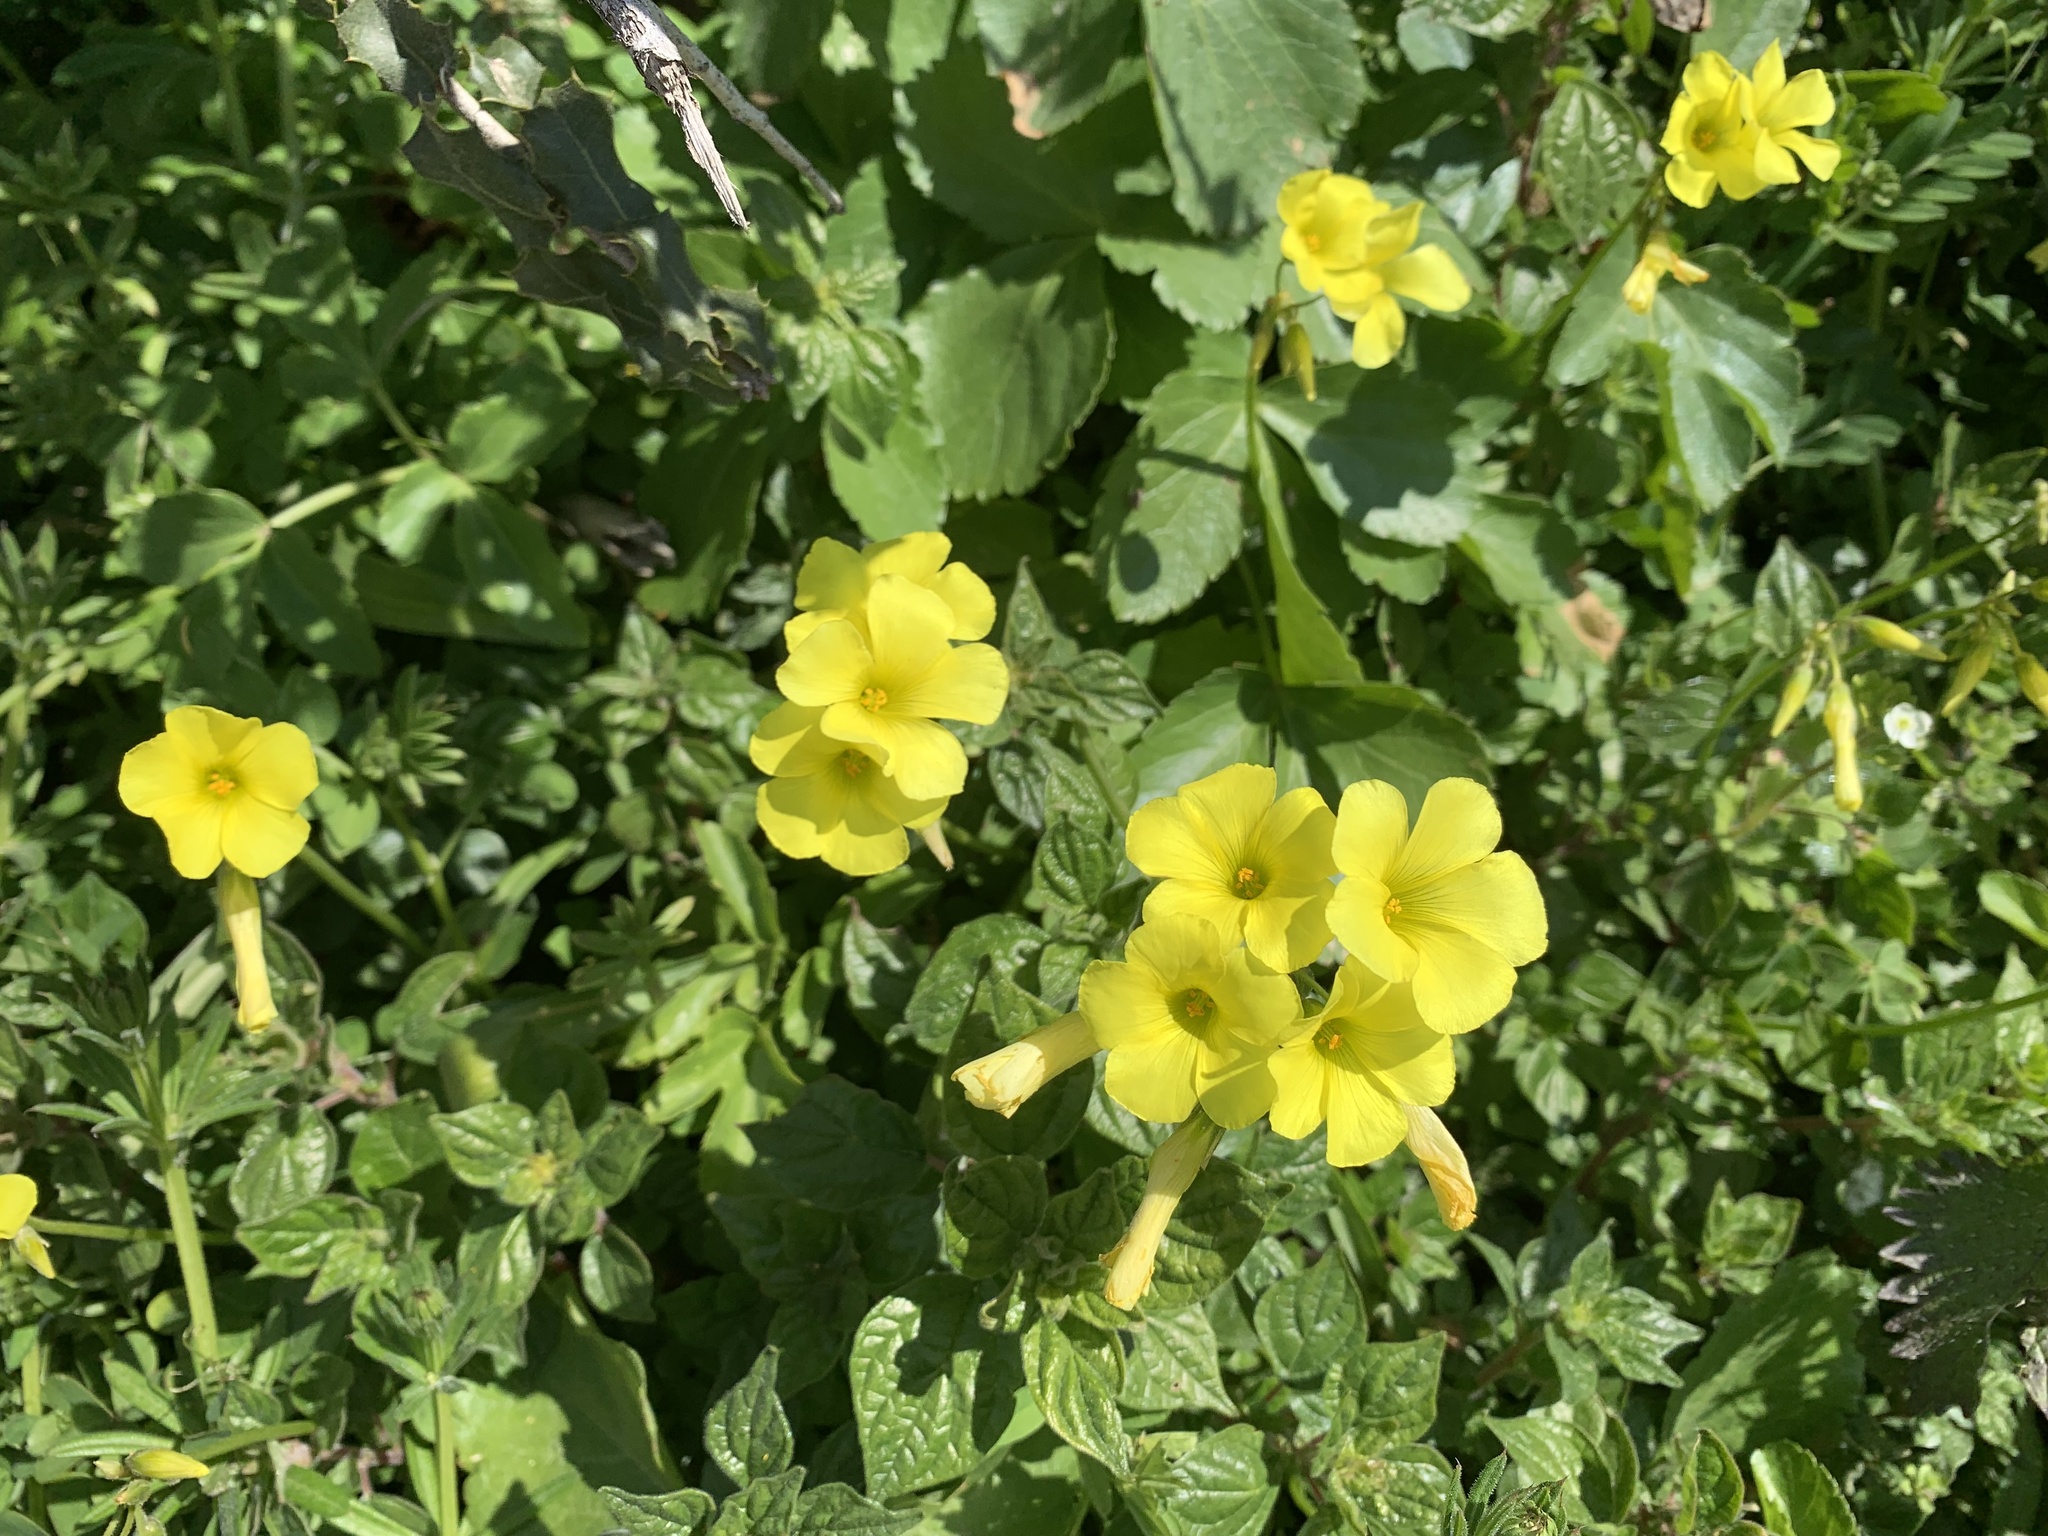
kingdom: Plantae
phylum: Tracheophyta
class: Magnoliopsida
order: Oxalidales
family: Oxalidaceae
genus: Oxalis
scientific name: Oxalis pes-caprae
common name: Bermuda-buttercup
